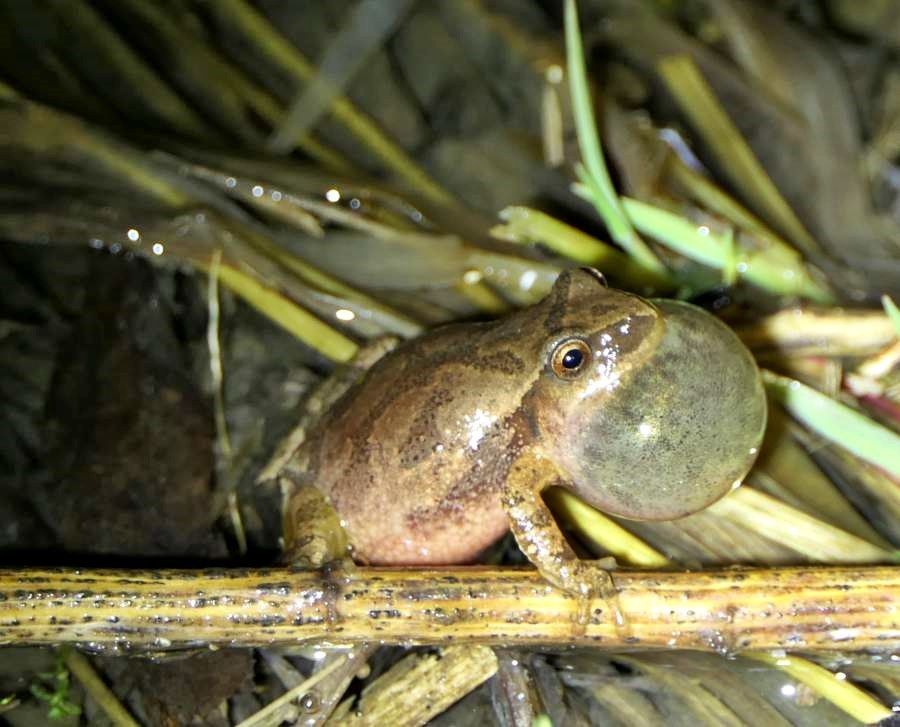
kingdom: Animalia
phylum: Chordata
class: Amphibia
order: Anura
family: Hylidae
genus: Pseudacris
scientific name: Pseudacris crucifer
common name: Spring peeper
